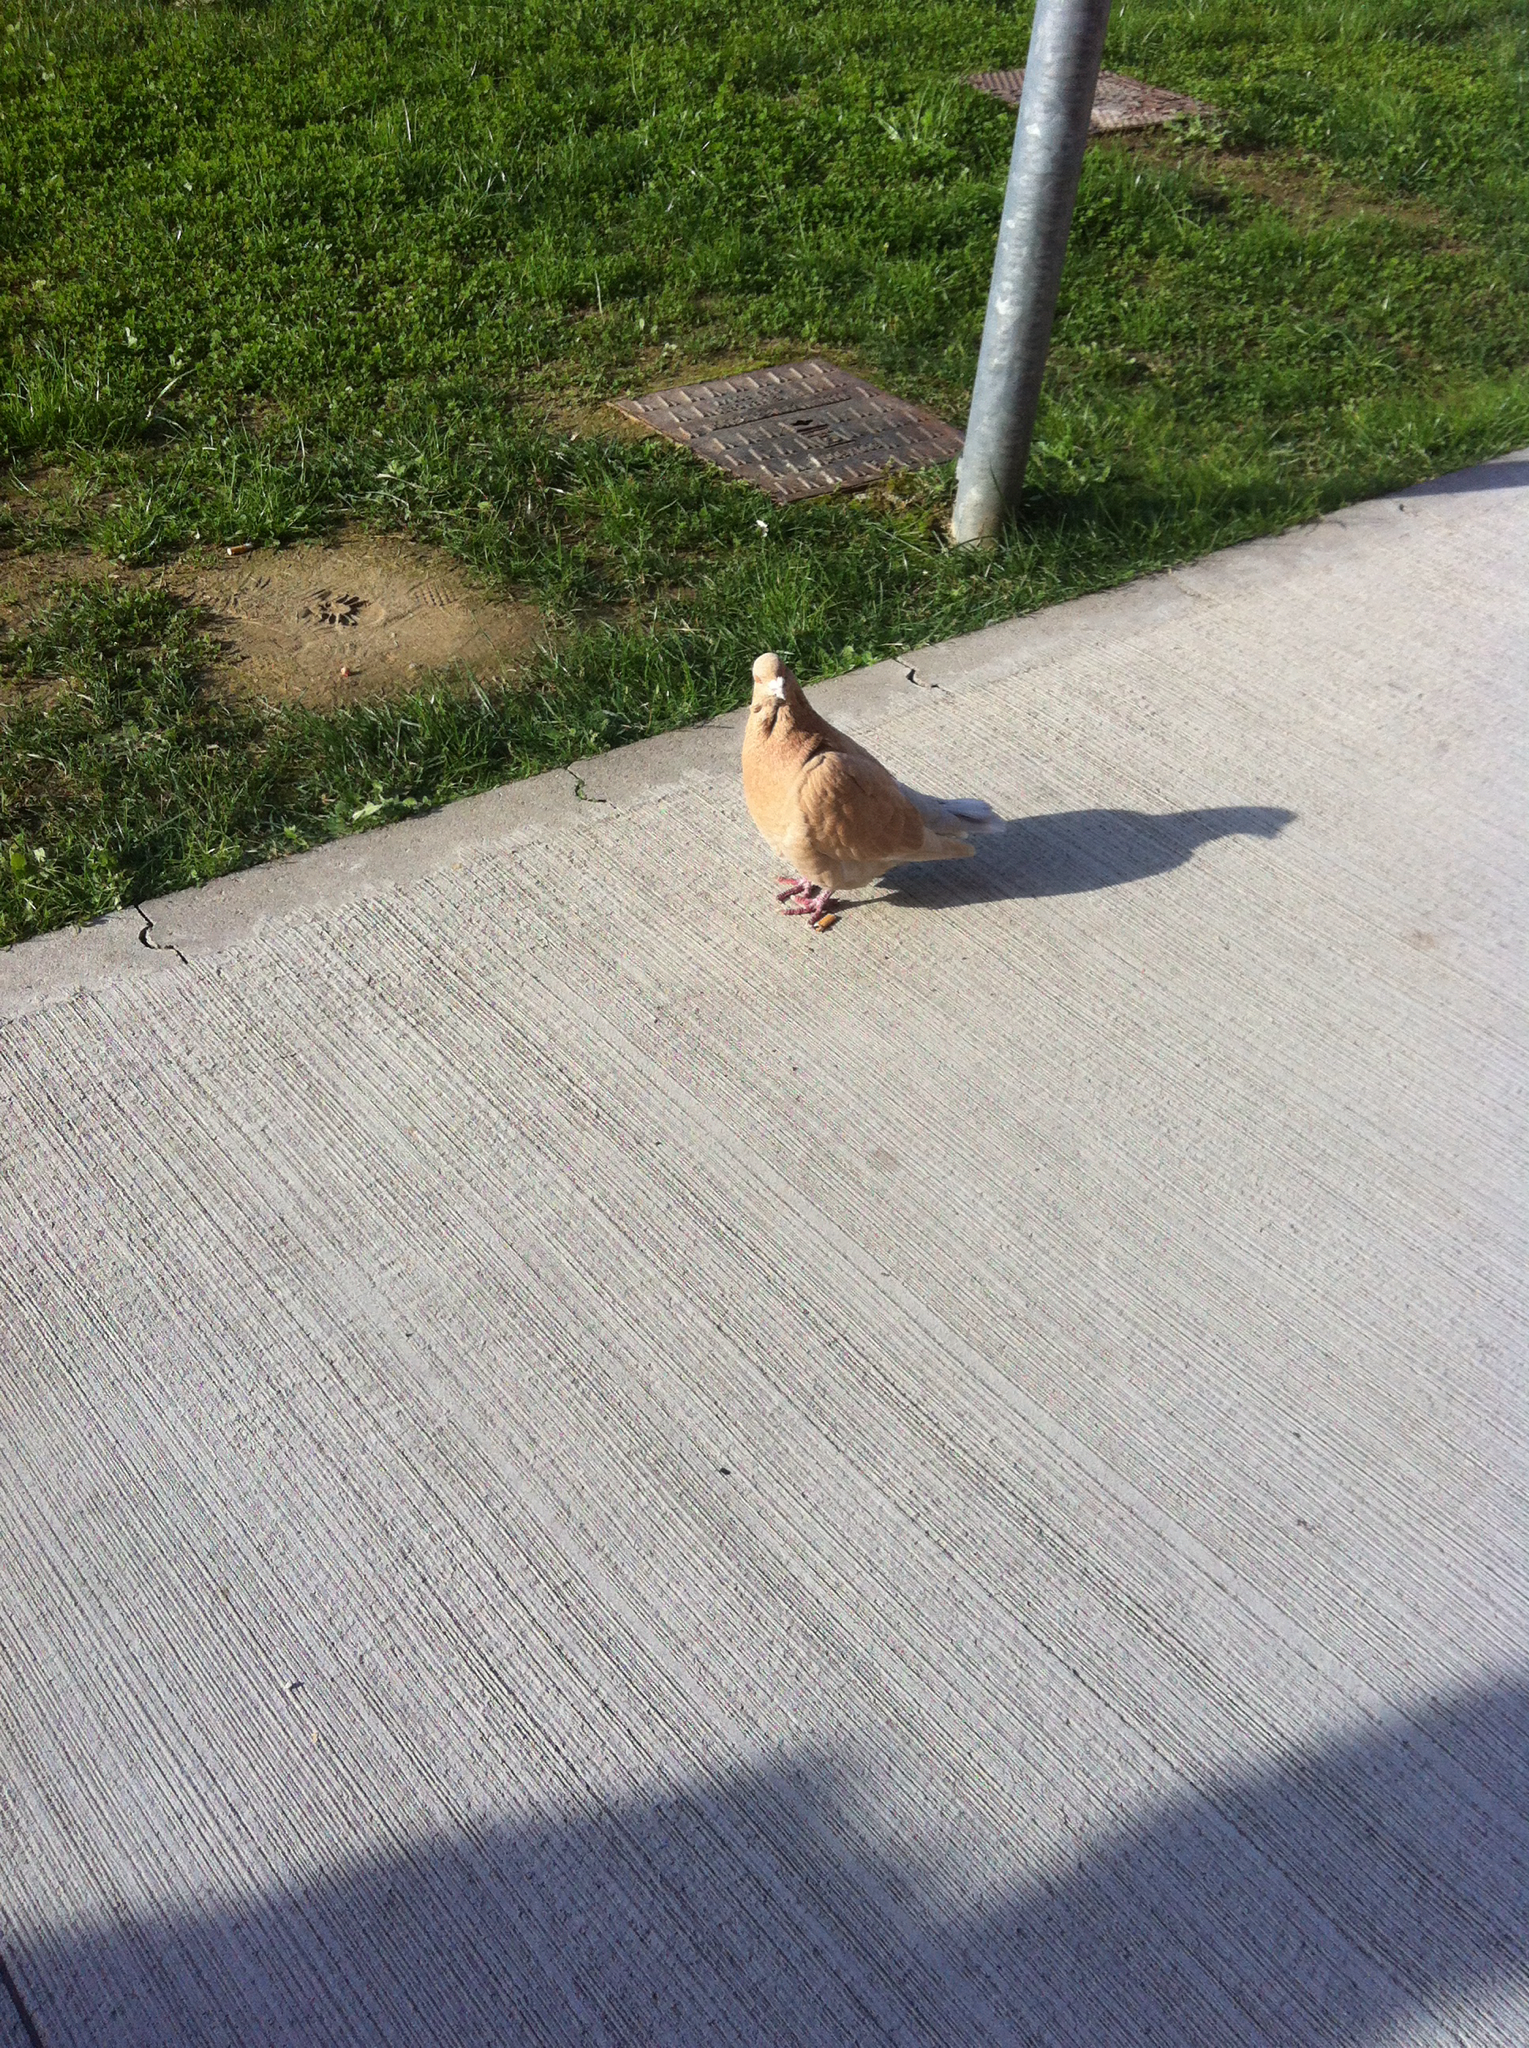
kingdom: Animalia
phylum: Chordata
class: Aves
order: Columbiformes
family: Columbidae
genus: Columba
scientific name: Columba livia
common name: Rock pigeon
